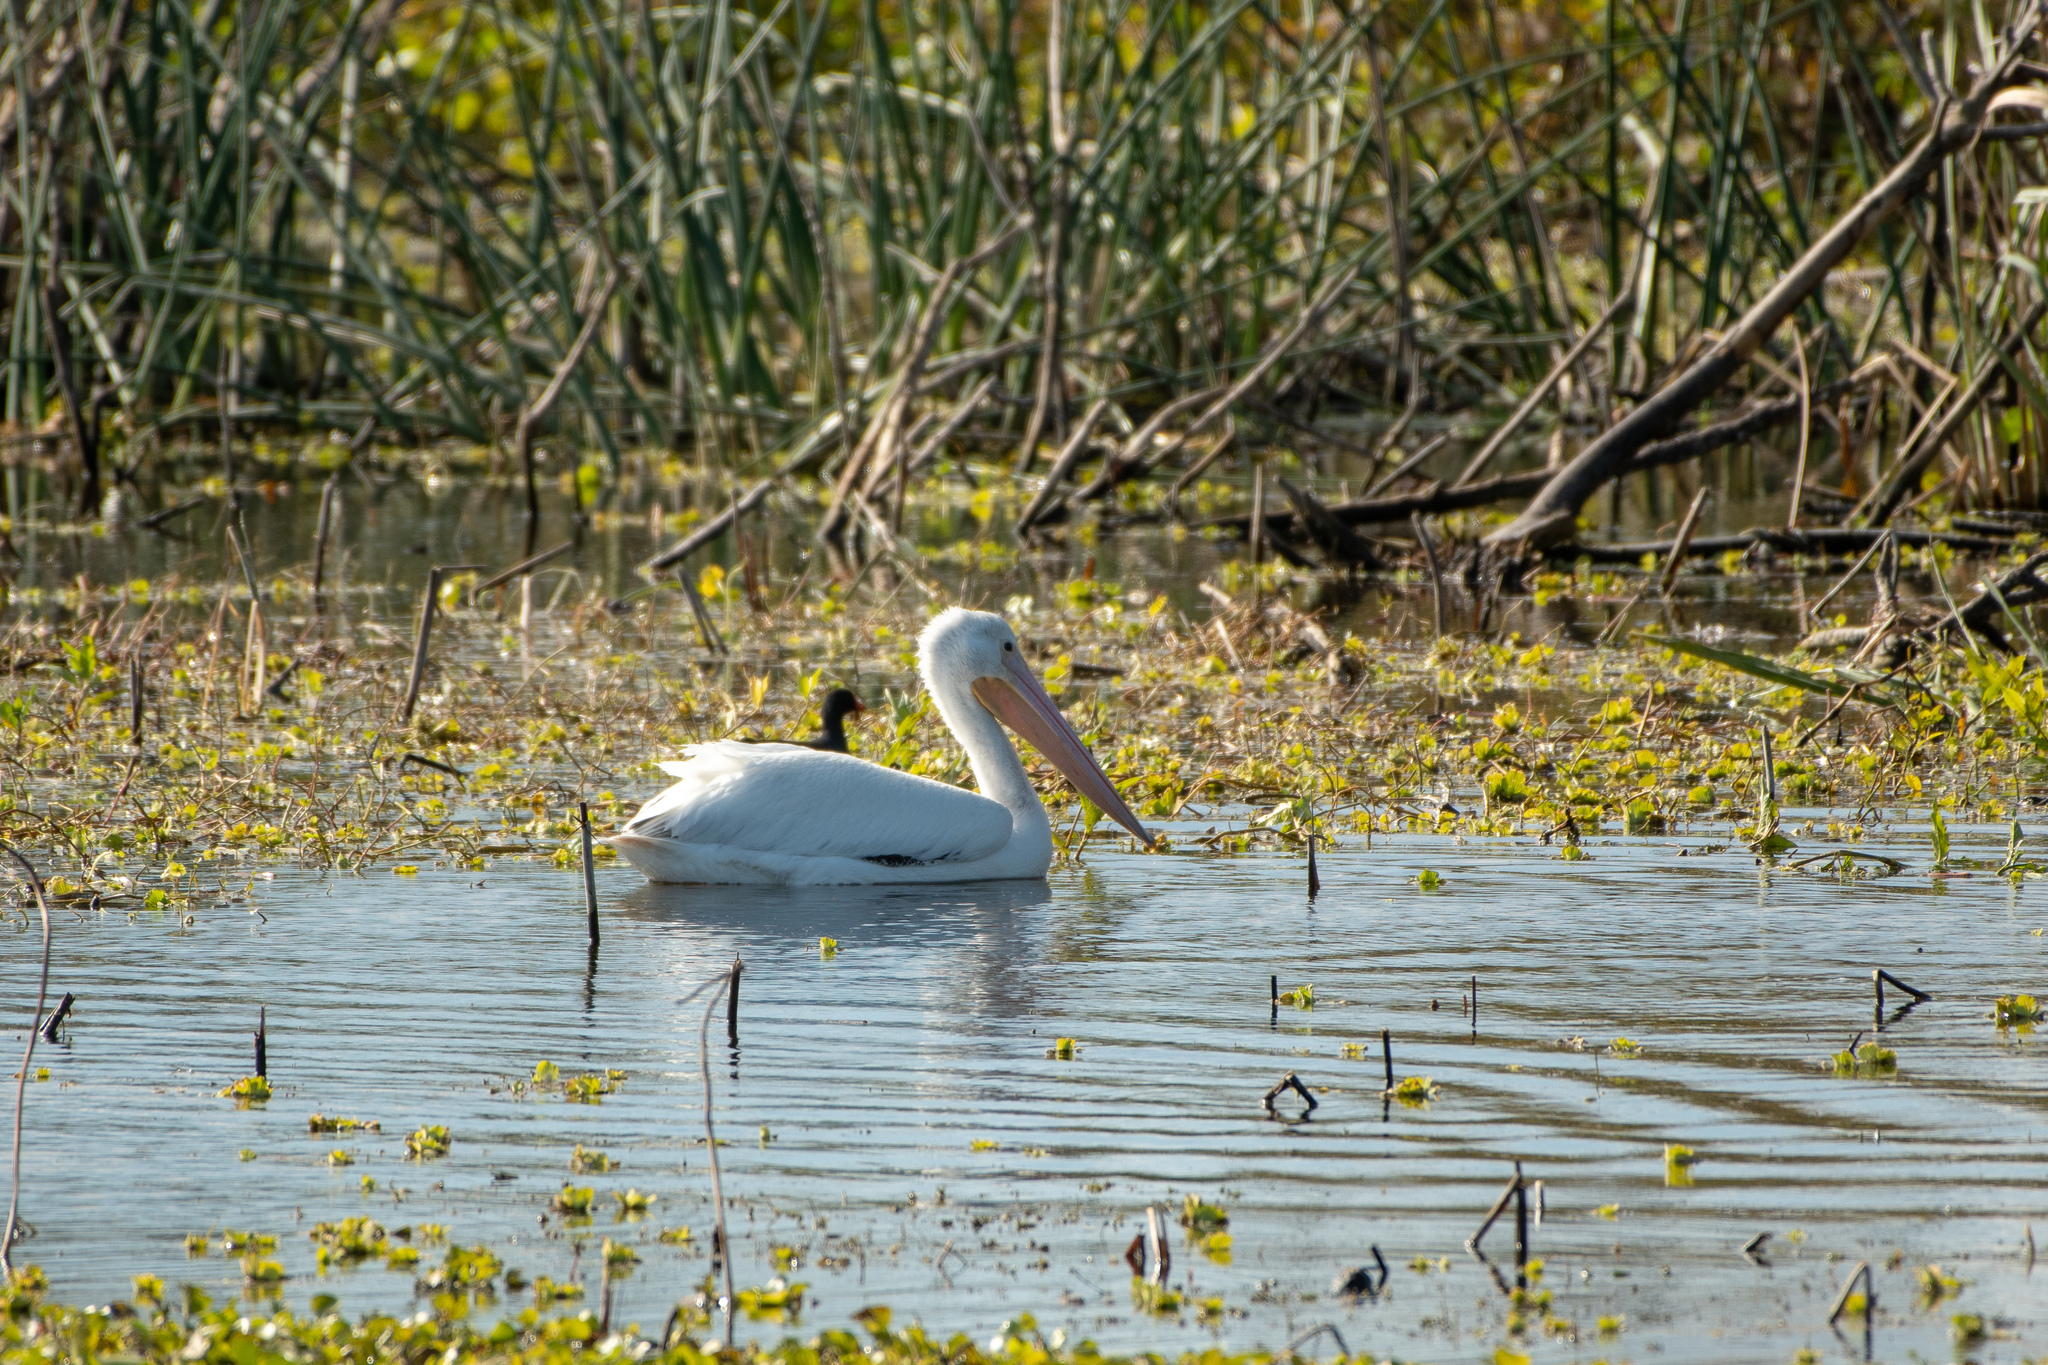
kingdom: Animalia
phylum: Chordata
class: Aves
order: Pelecaniformes
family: Pelecanidae
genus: Pelecanus
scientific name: Pelecanus erythrorhynchos
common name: American white pelican
